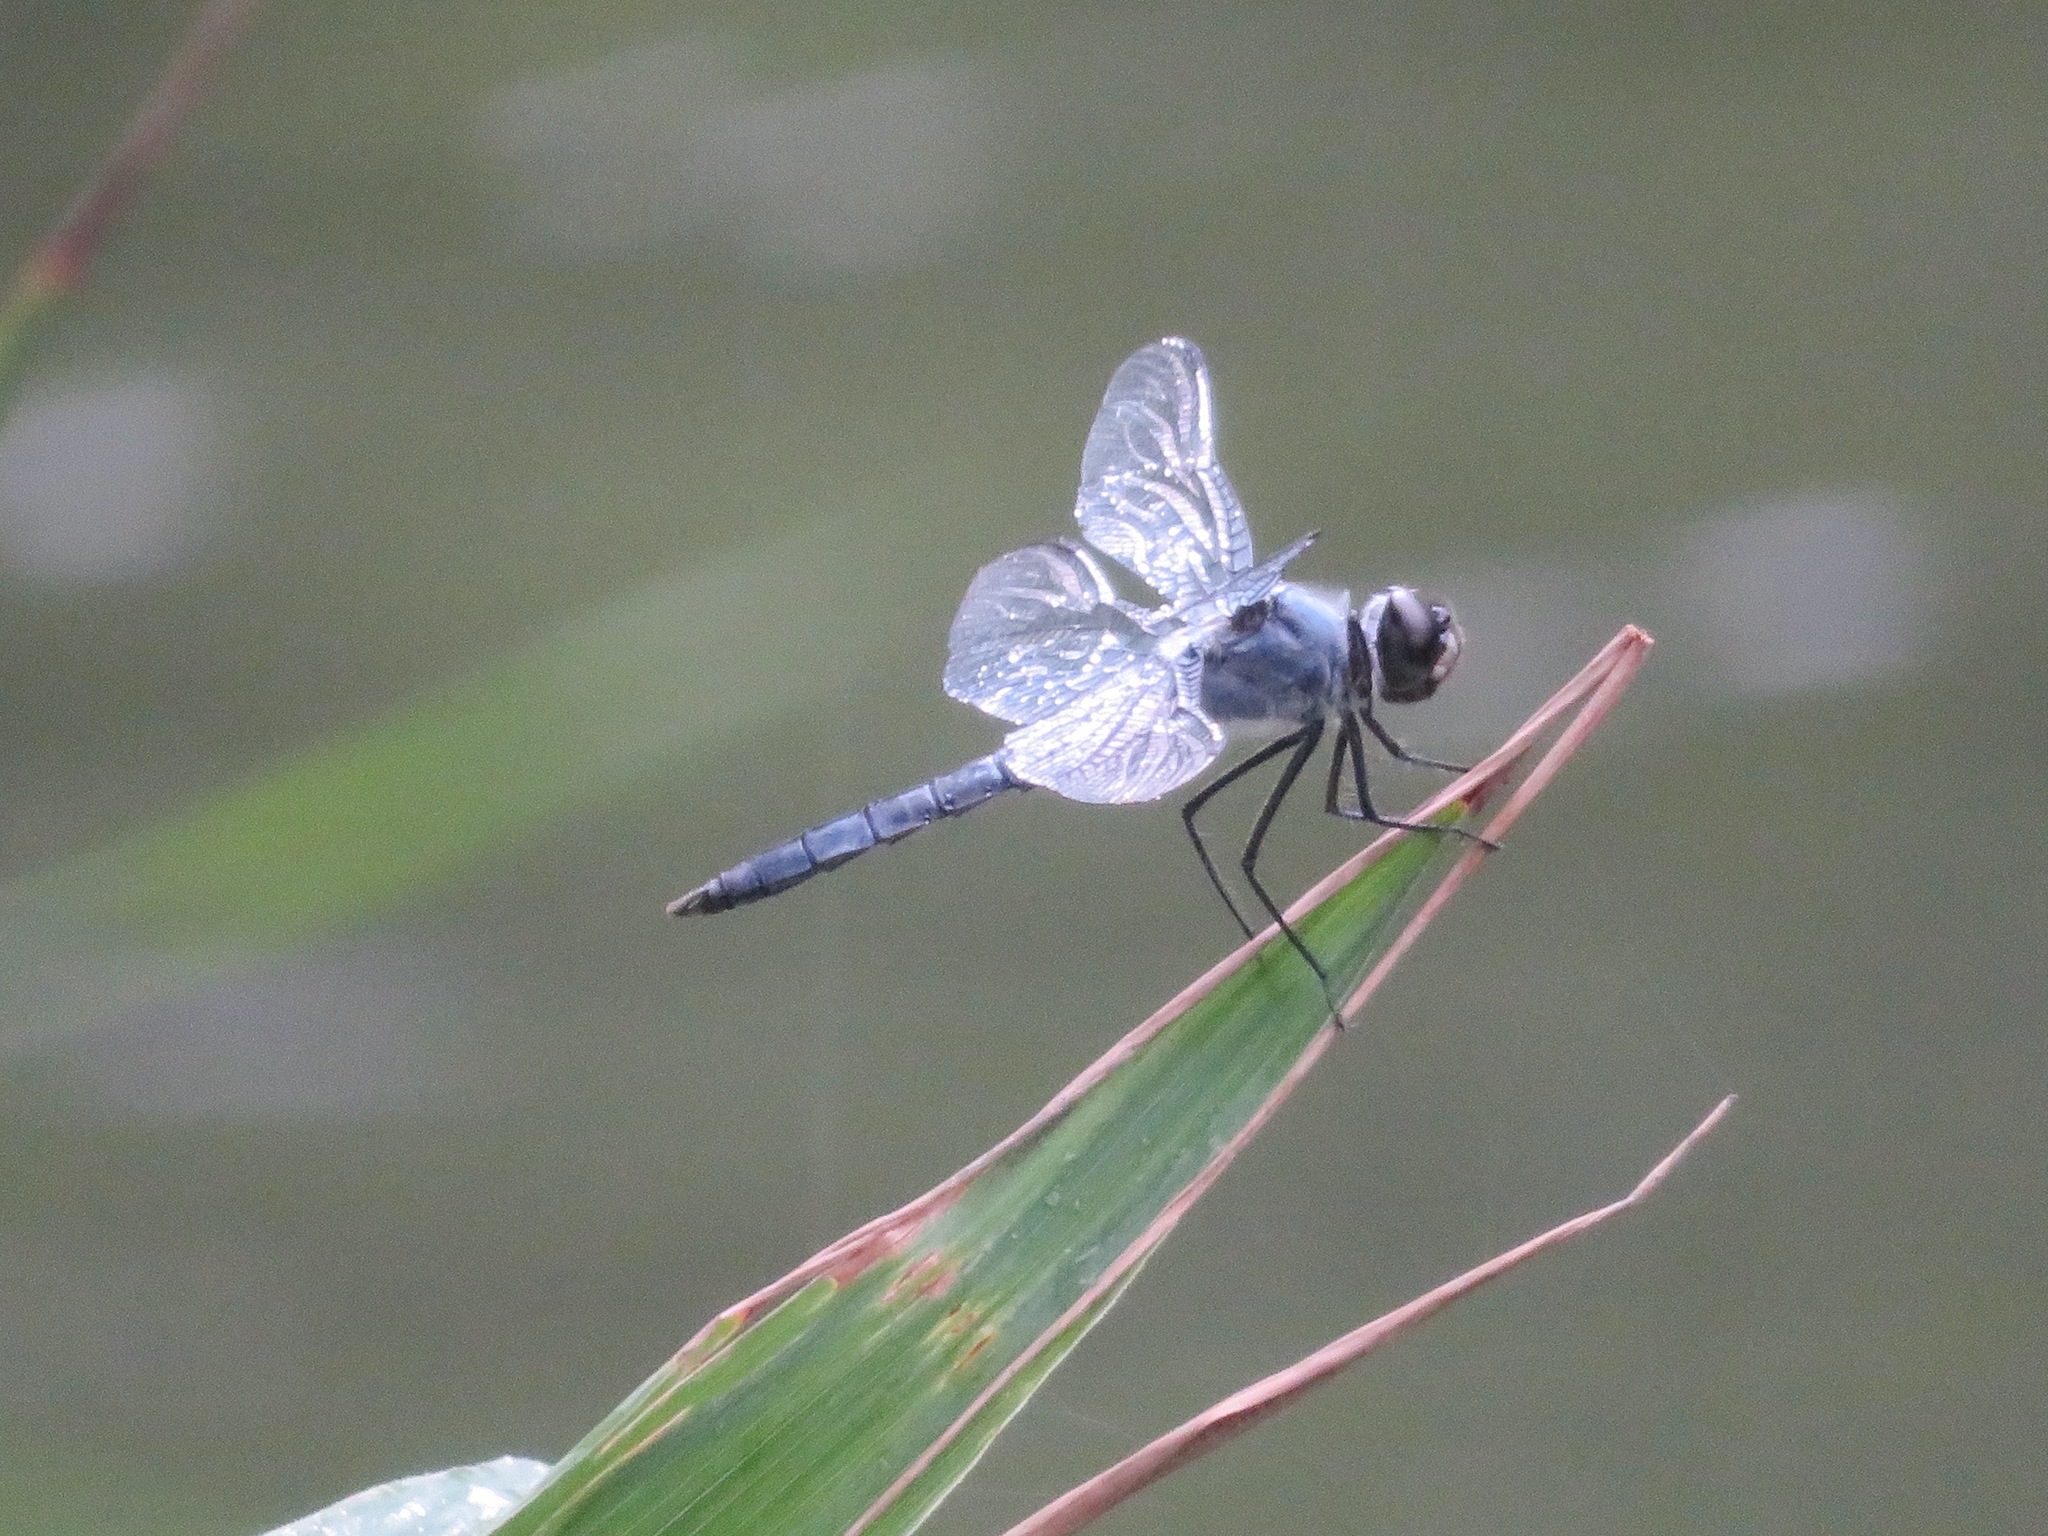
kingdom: Animalia
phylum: Arthropoda
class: Insecta
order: Odonata
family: Libellulidae
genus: Deielia
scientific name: Deielia phaon
